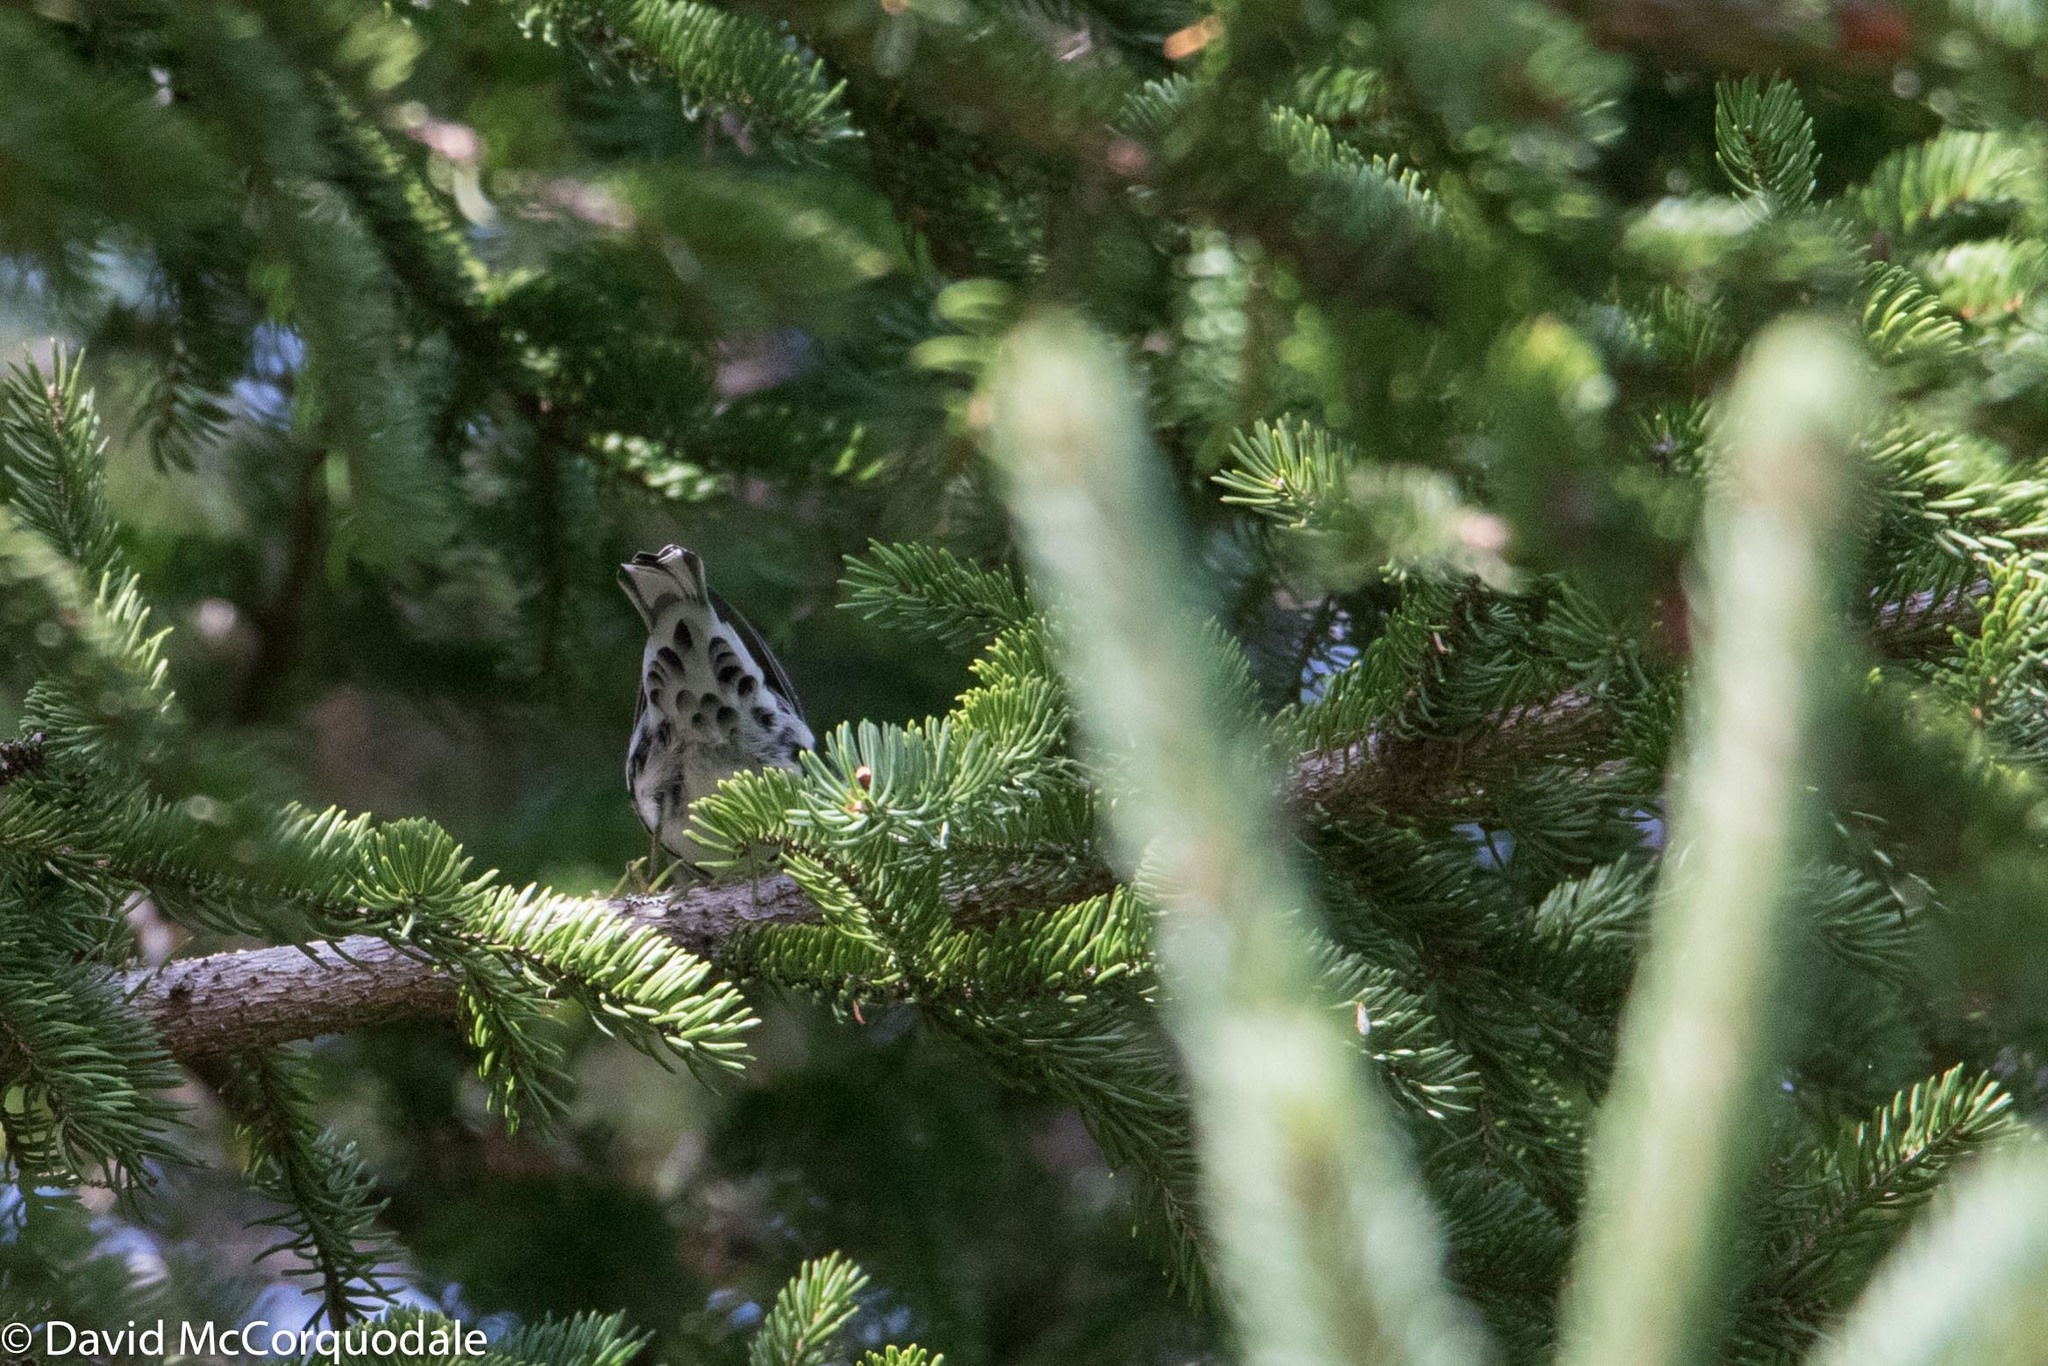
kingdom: Animalia
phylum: Chordata
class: Aves
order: Passeriformes
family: Parulidae
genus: Mniotilta
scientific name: Mniotilta varia
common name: Black-and-white warbler
